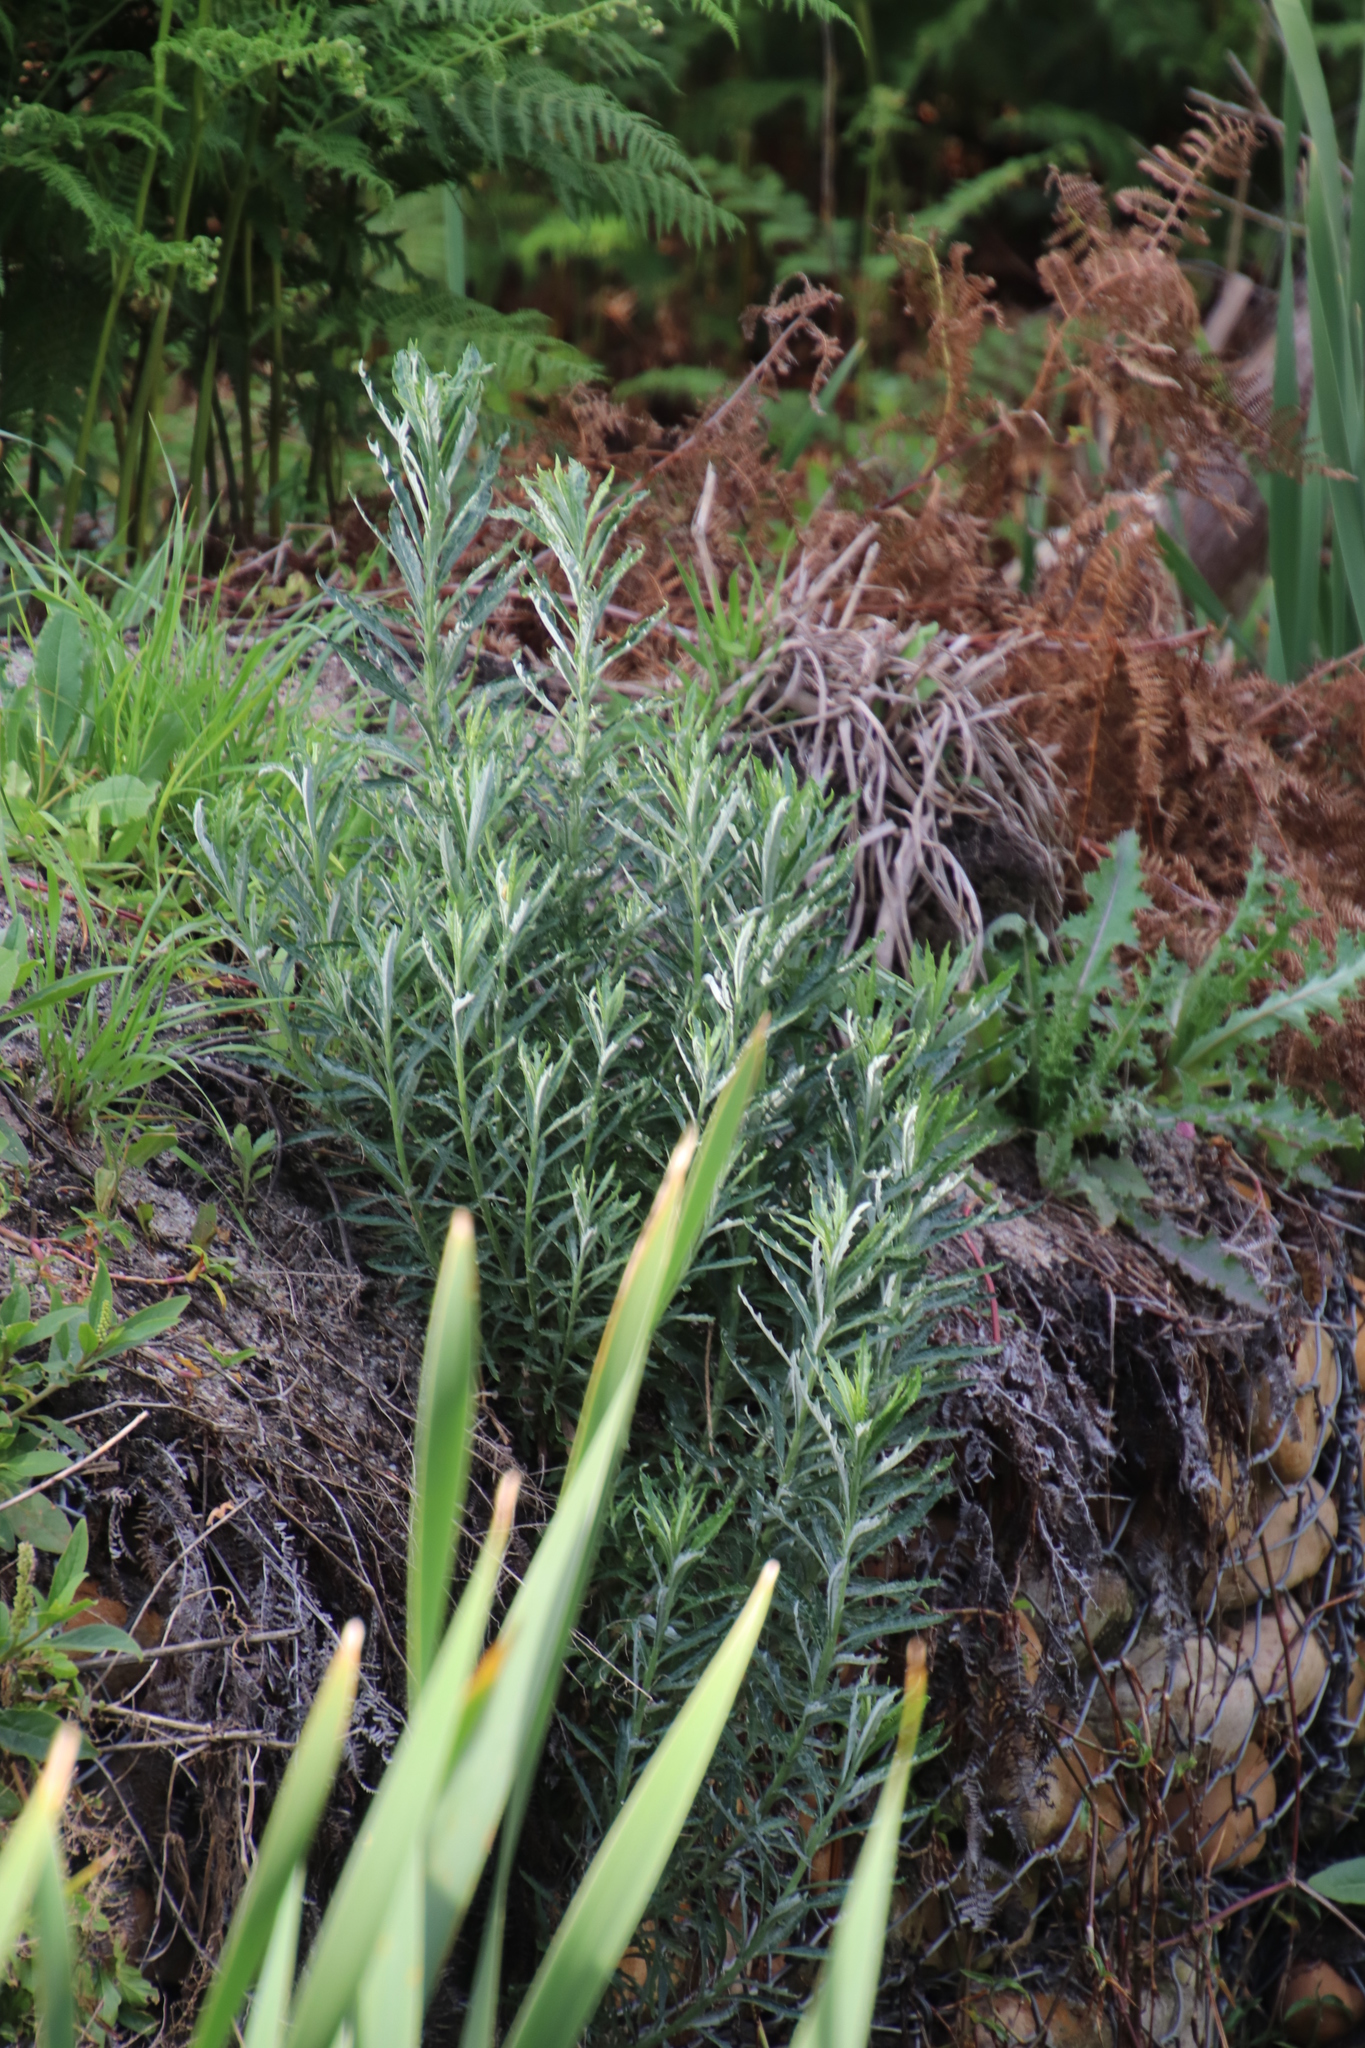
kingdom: Plantae
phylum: Tracheophyta
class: Magnoliopsida
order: Asterales
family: Asteraceae
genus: Senecio
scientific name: Senecio pterophorus
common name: Shoddy ragwort
